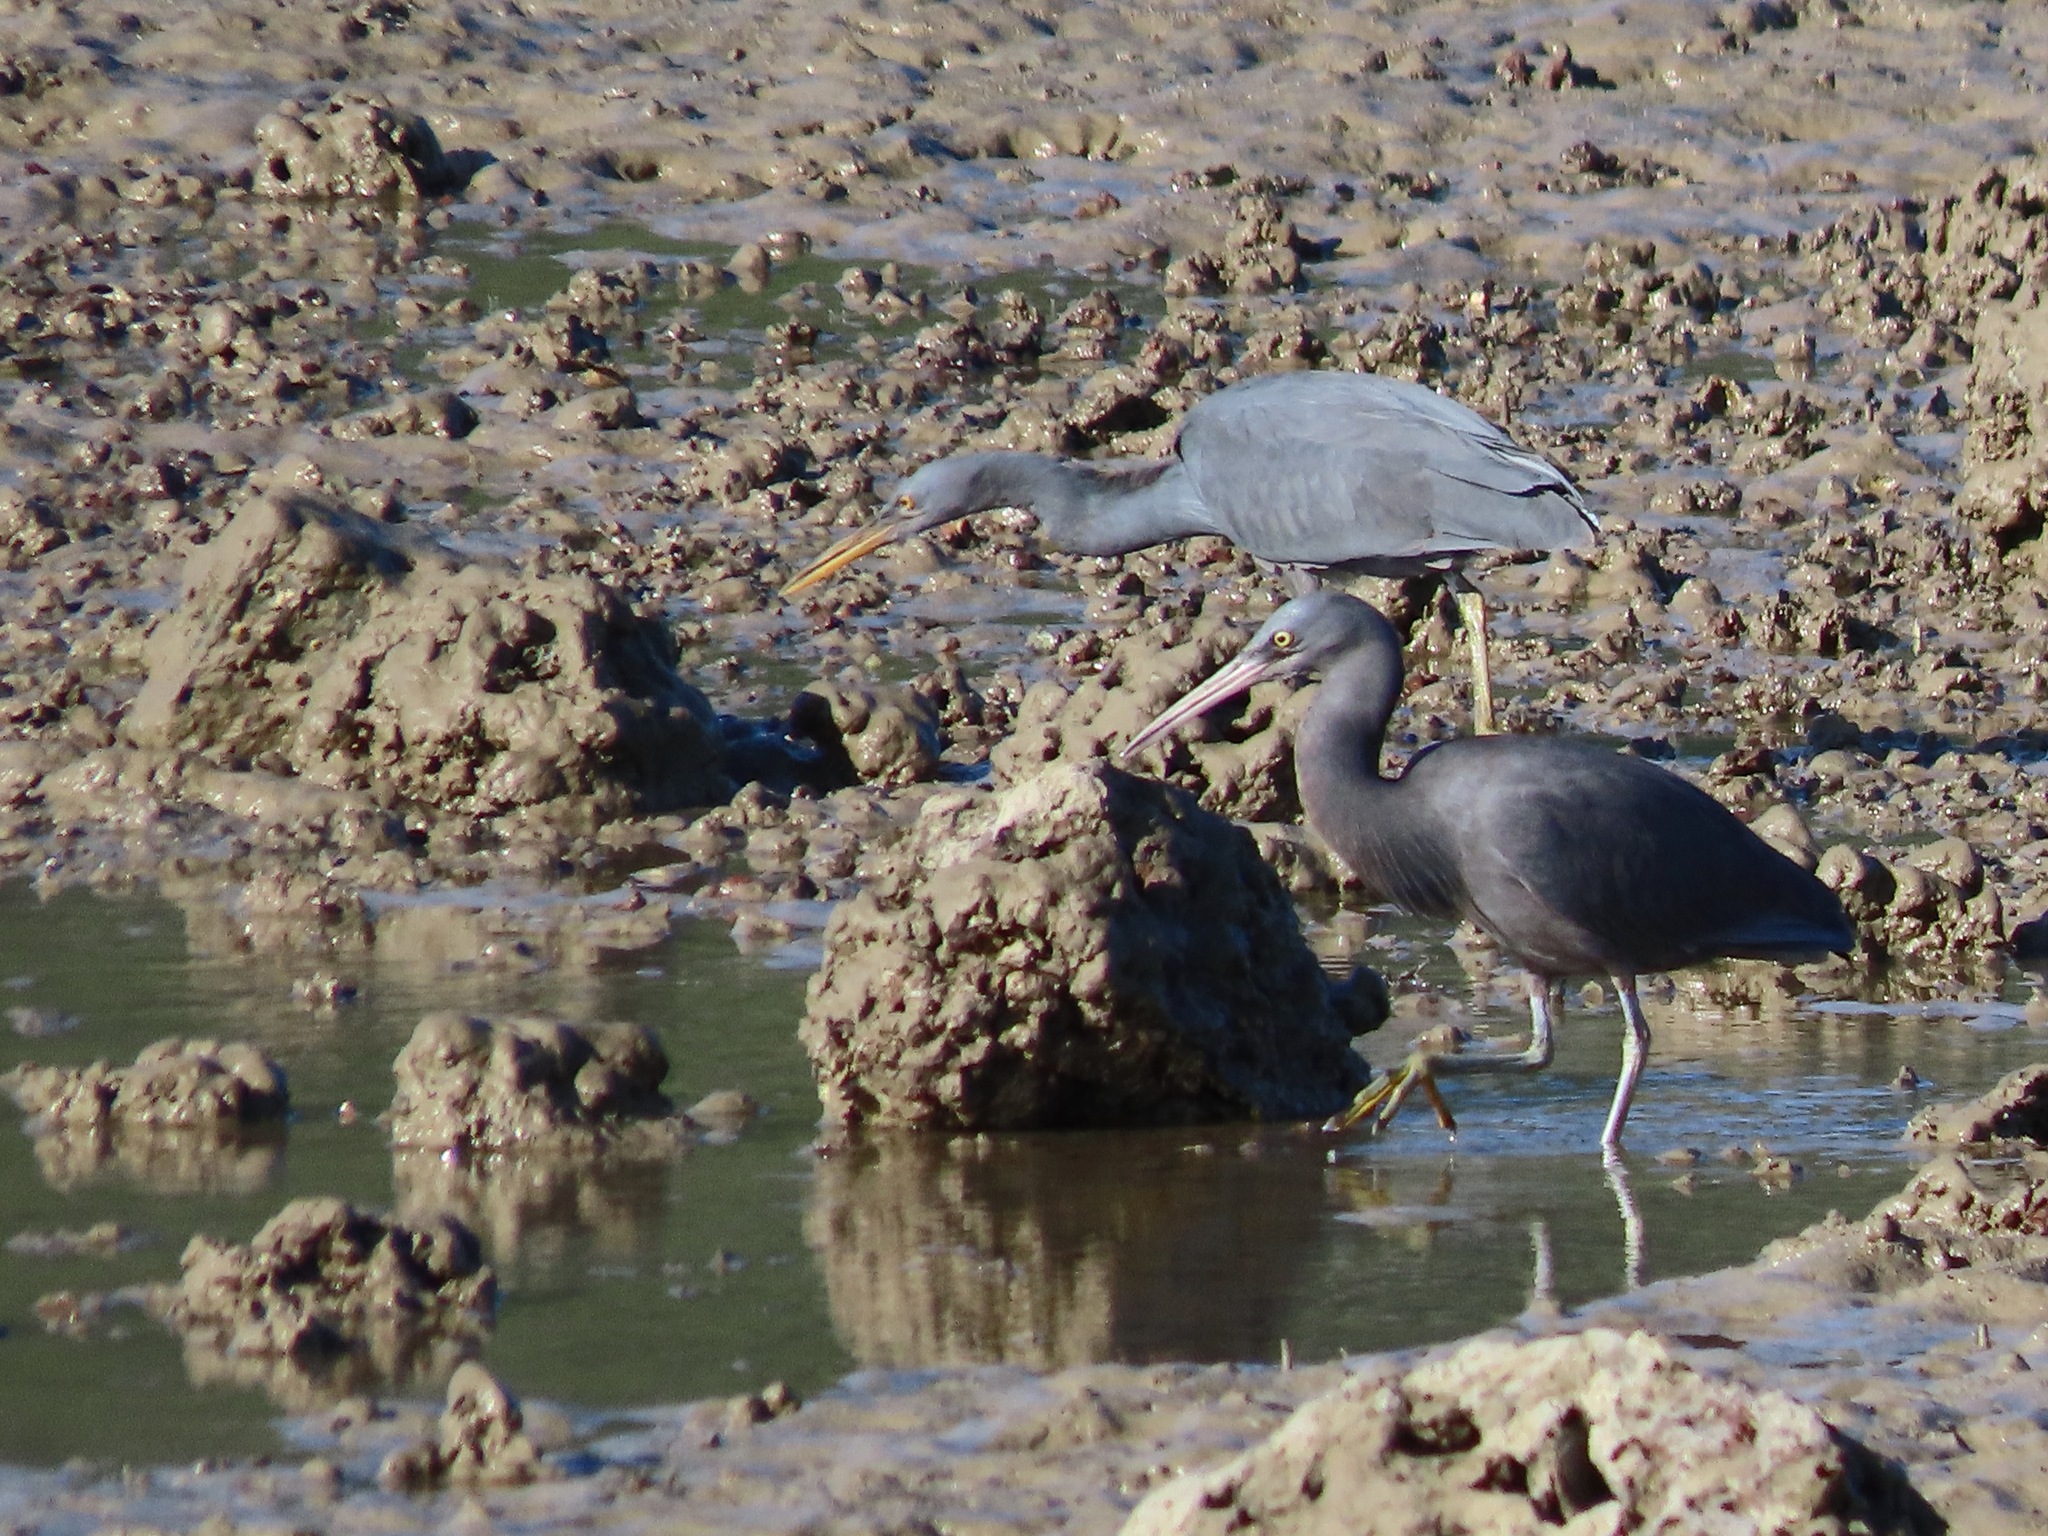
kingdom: Animalia
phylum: Chordata
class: Aves
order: Pelecaniformes
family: Ardeidae
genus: Egretta
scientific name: Egretta sacra
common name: Pacific reef heron
